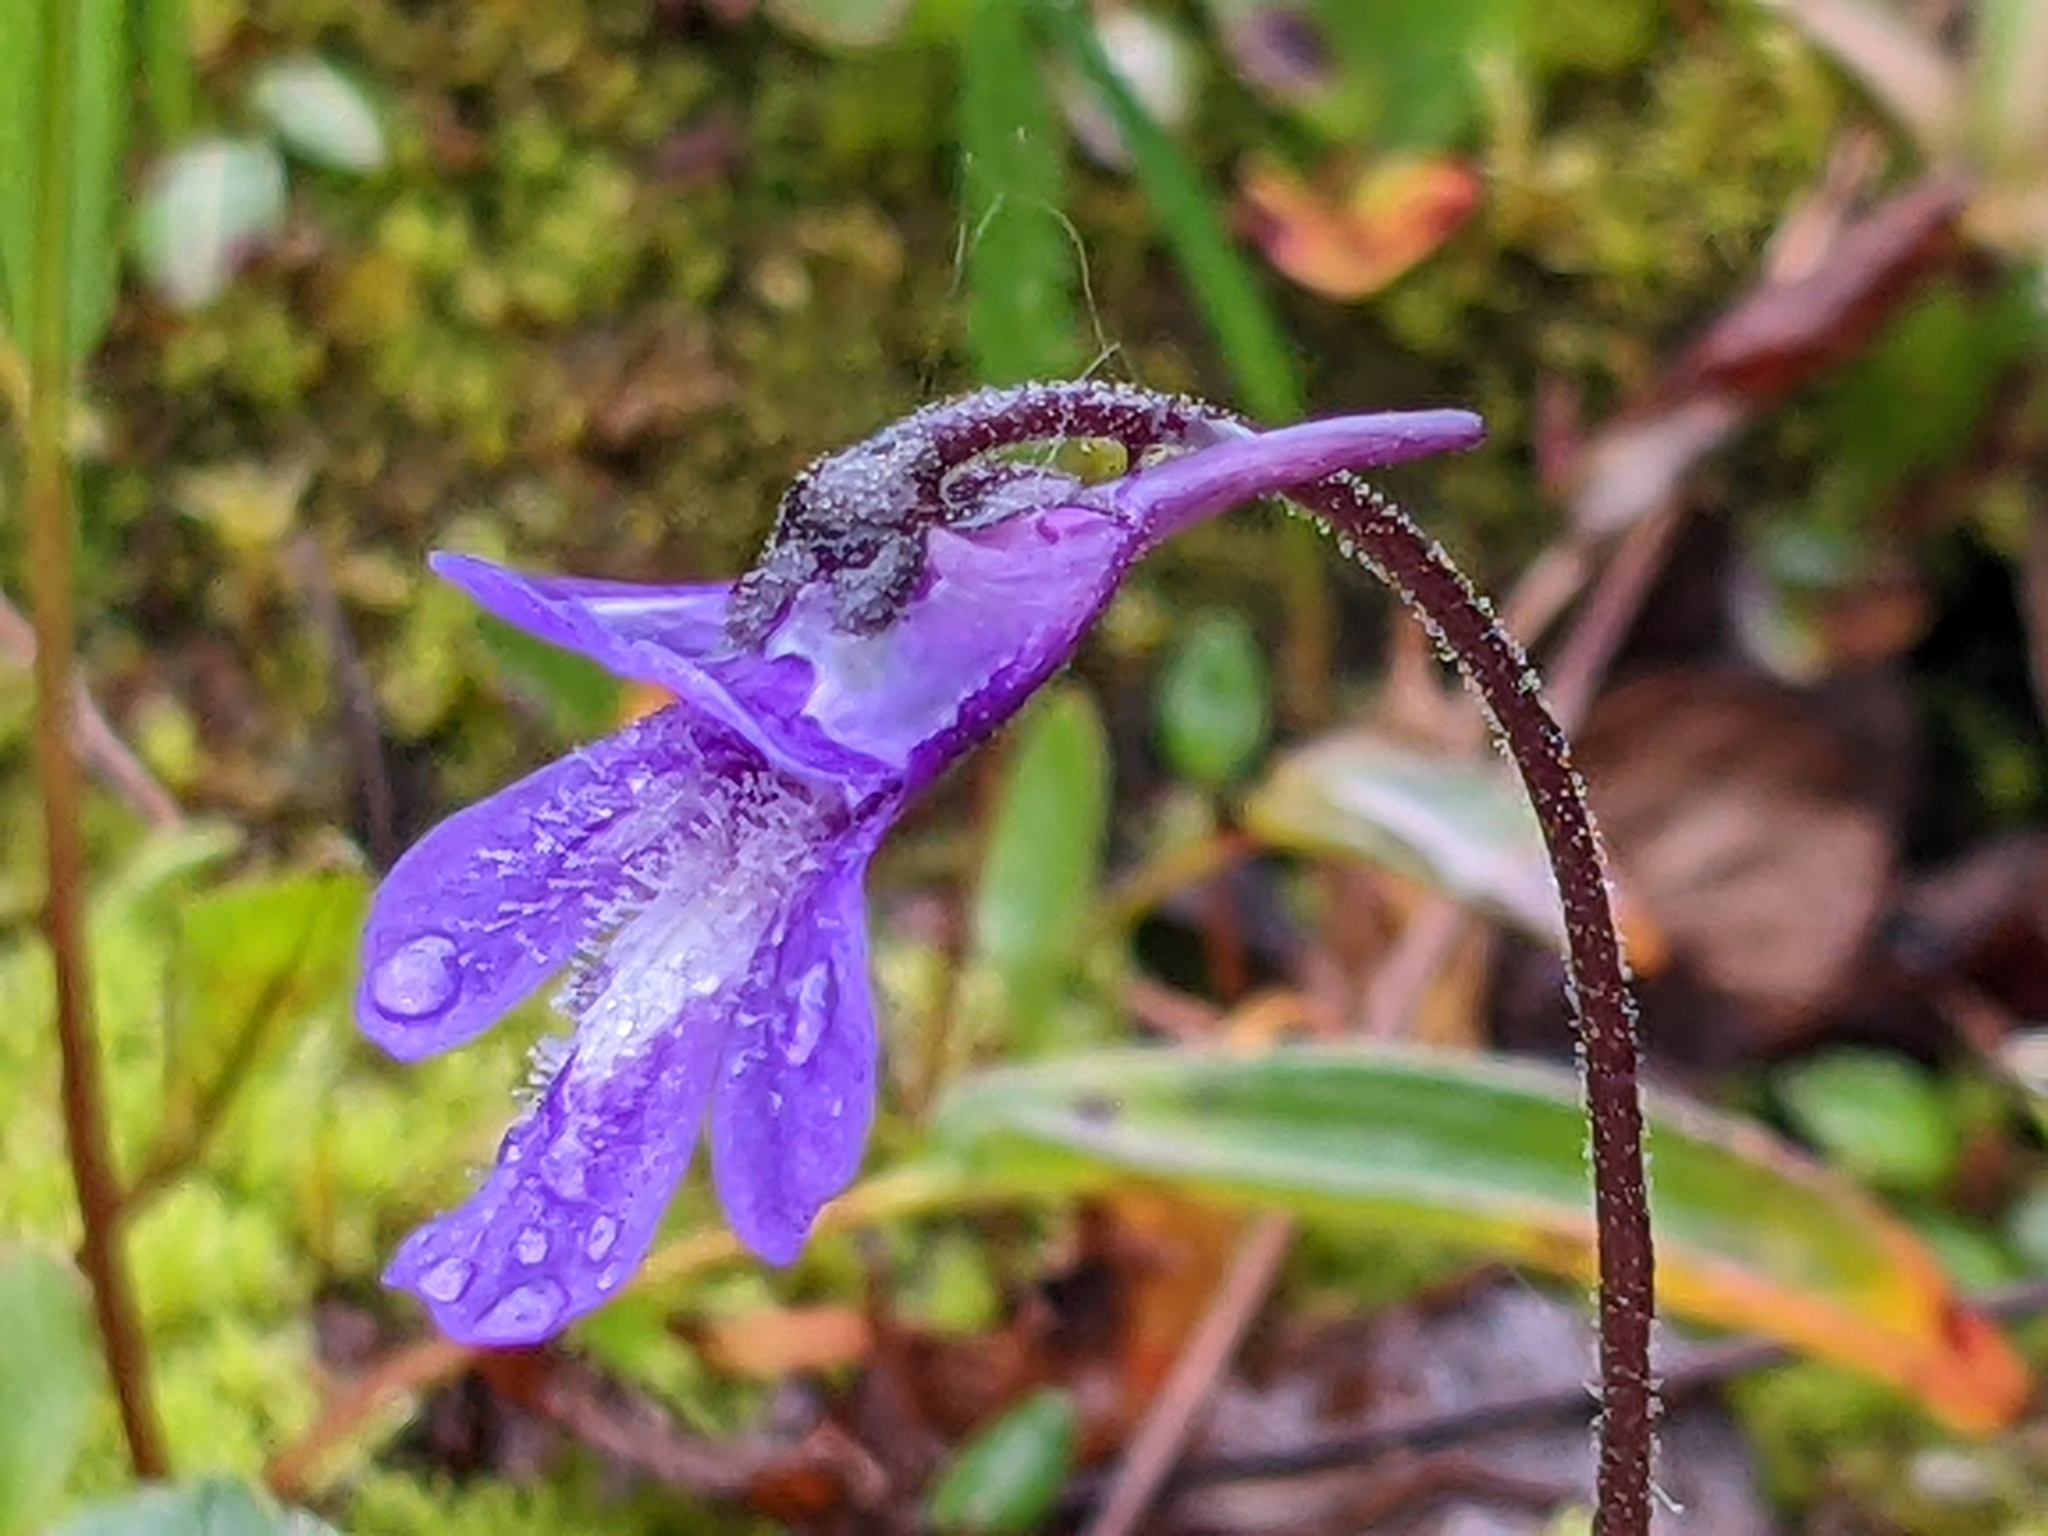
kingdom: Plantae
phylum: Tracheophyta
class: Magnoliopsida
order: Lamiales
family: Lentibulariaceae
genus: Pinguicula
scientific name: Pinguicula vulgaris
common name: Common butterwort
